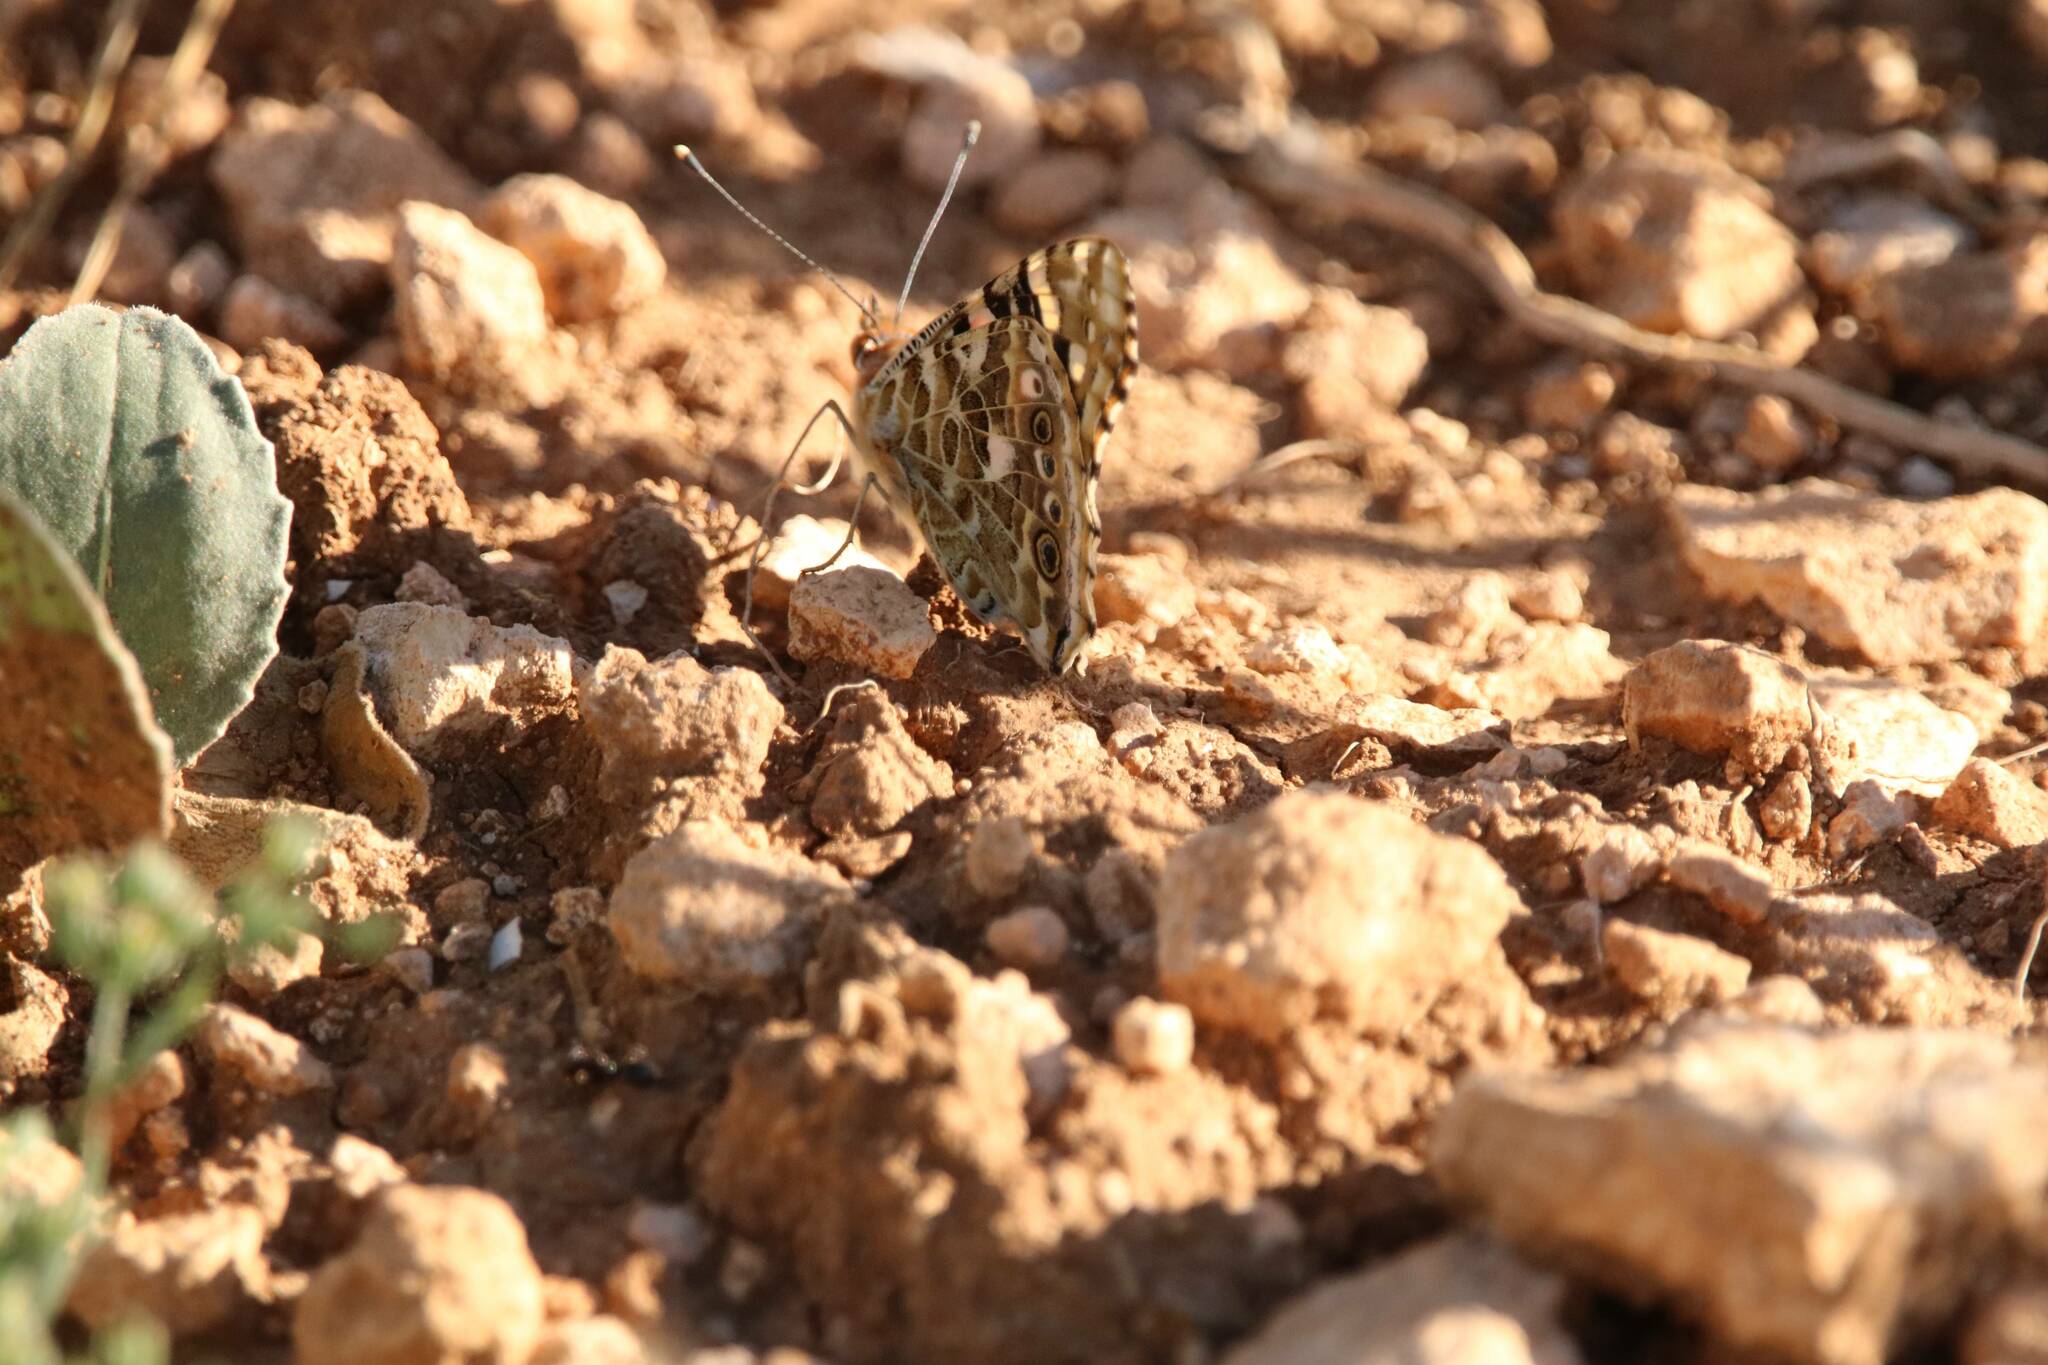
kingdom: Animalia
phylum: Arthropoda
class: Insecta
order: Lepidoptera
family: Nymphalidae
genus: Vanessa
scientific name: Vanessa cardui
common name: Painted lady
